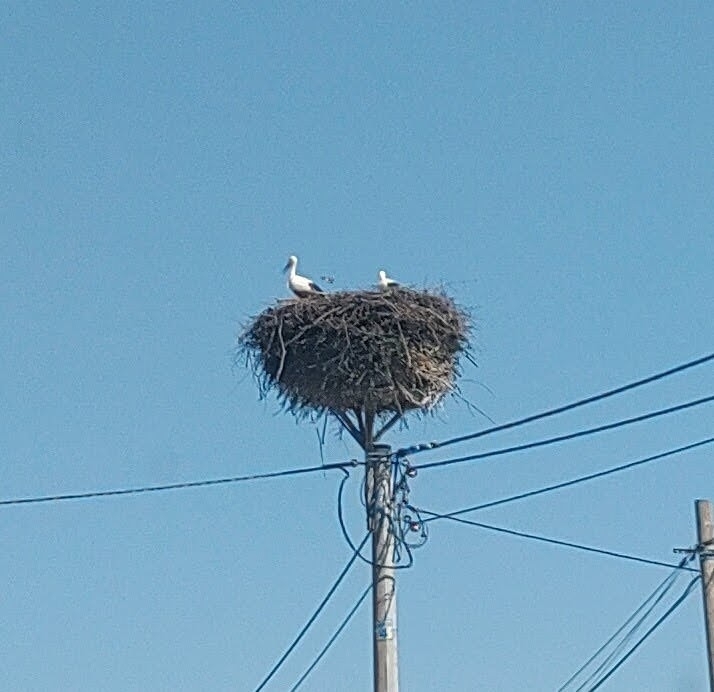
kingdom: Animalia
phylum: Chordata
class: Aves
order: Ciconiiformes
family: Ciconiidae
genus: Ciconia
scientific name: Ciconia ciconia
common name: White stork
